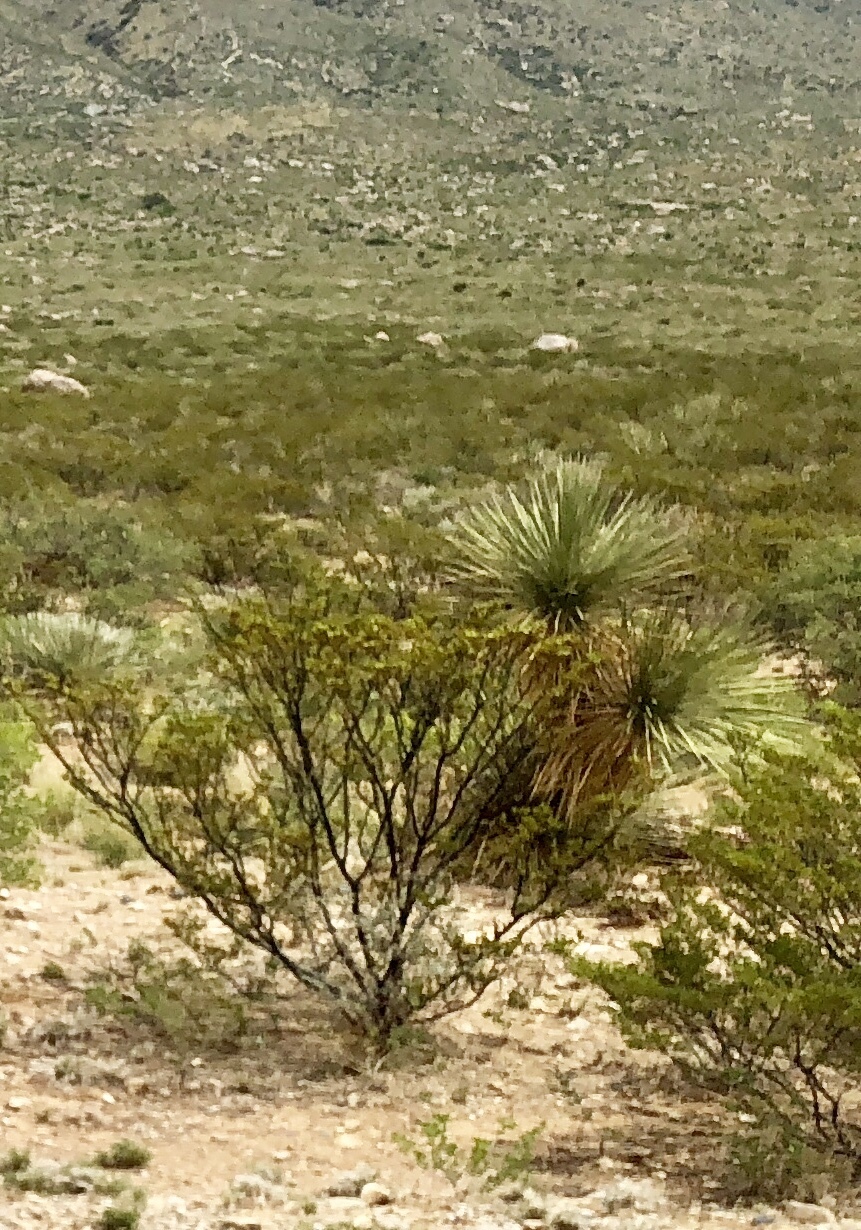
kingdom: Plantae
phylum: Tracheophyta
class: Magnoliopsida
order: Zygophyllales
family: Zygophyllaceae
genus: Larrea
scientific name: Larrea tridentata
